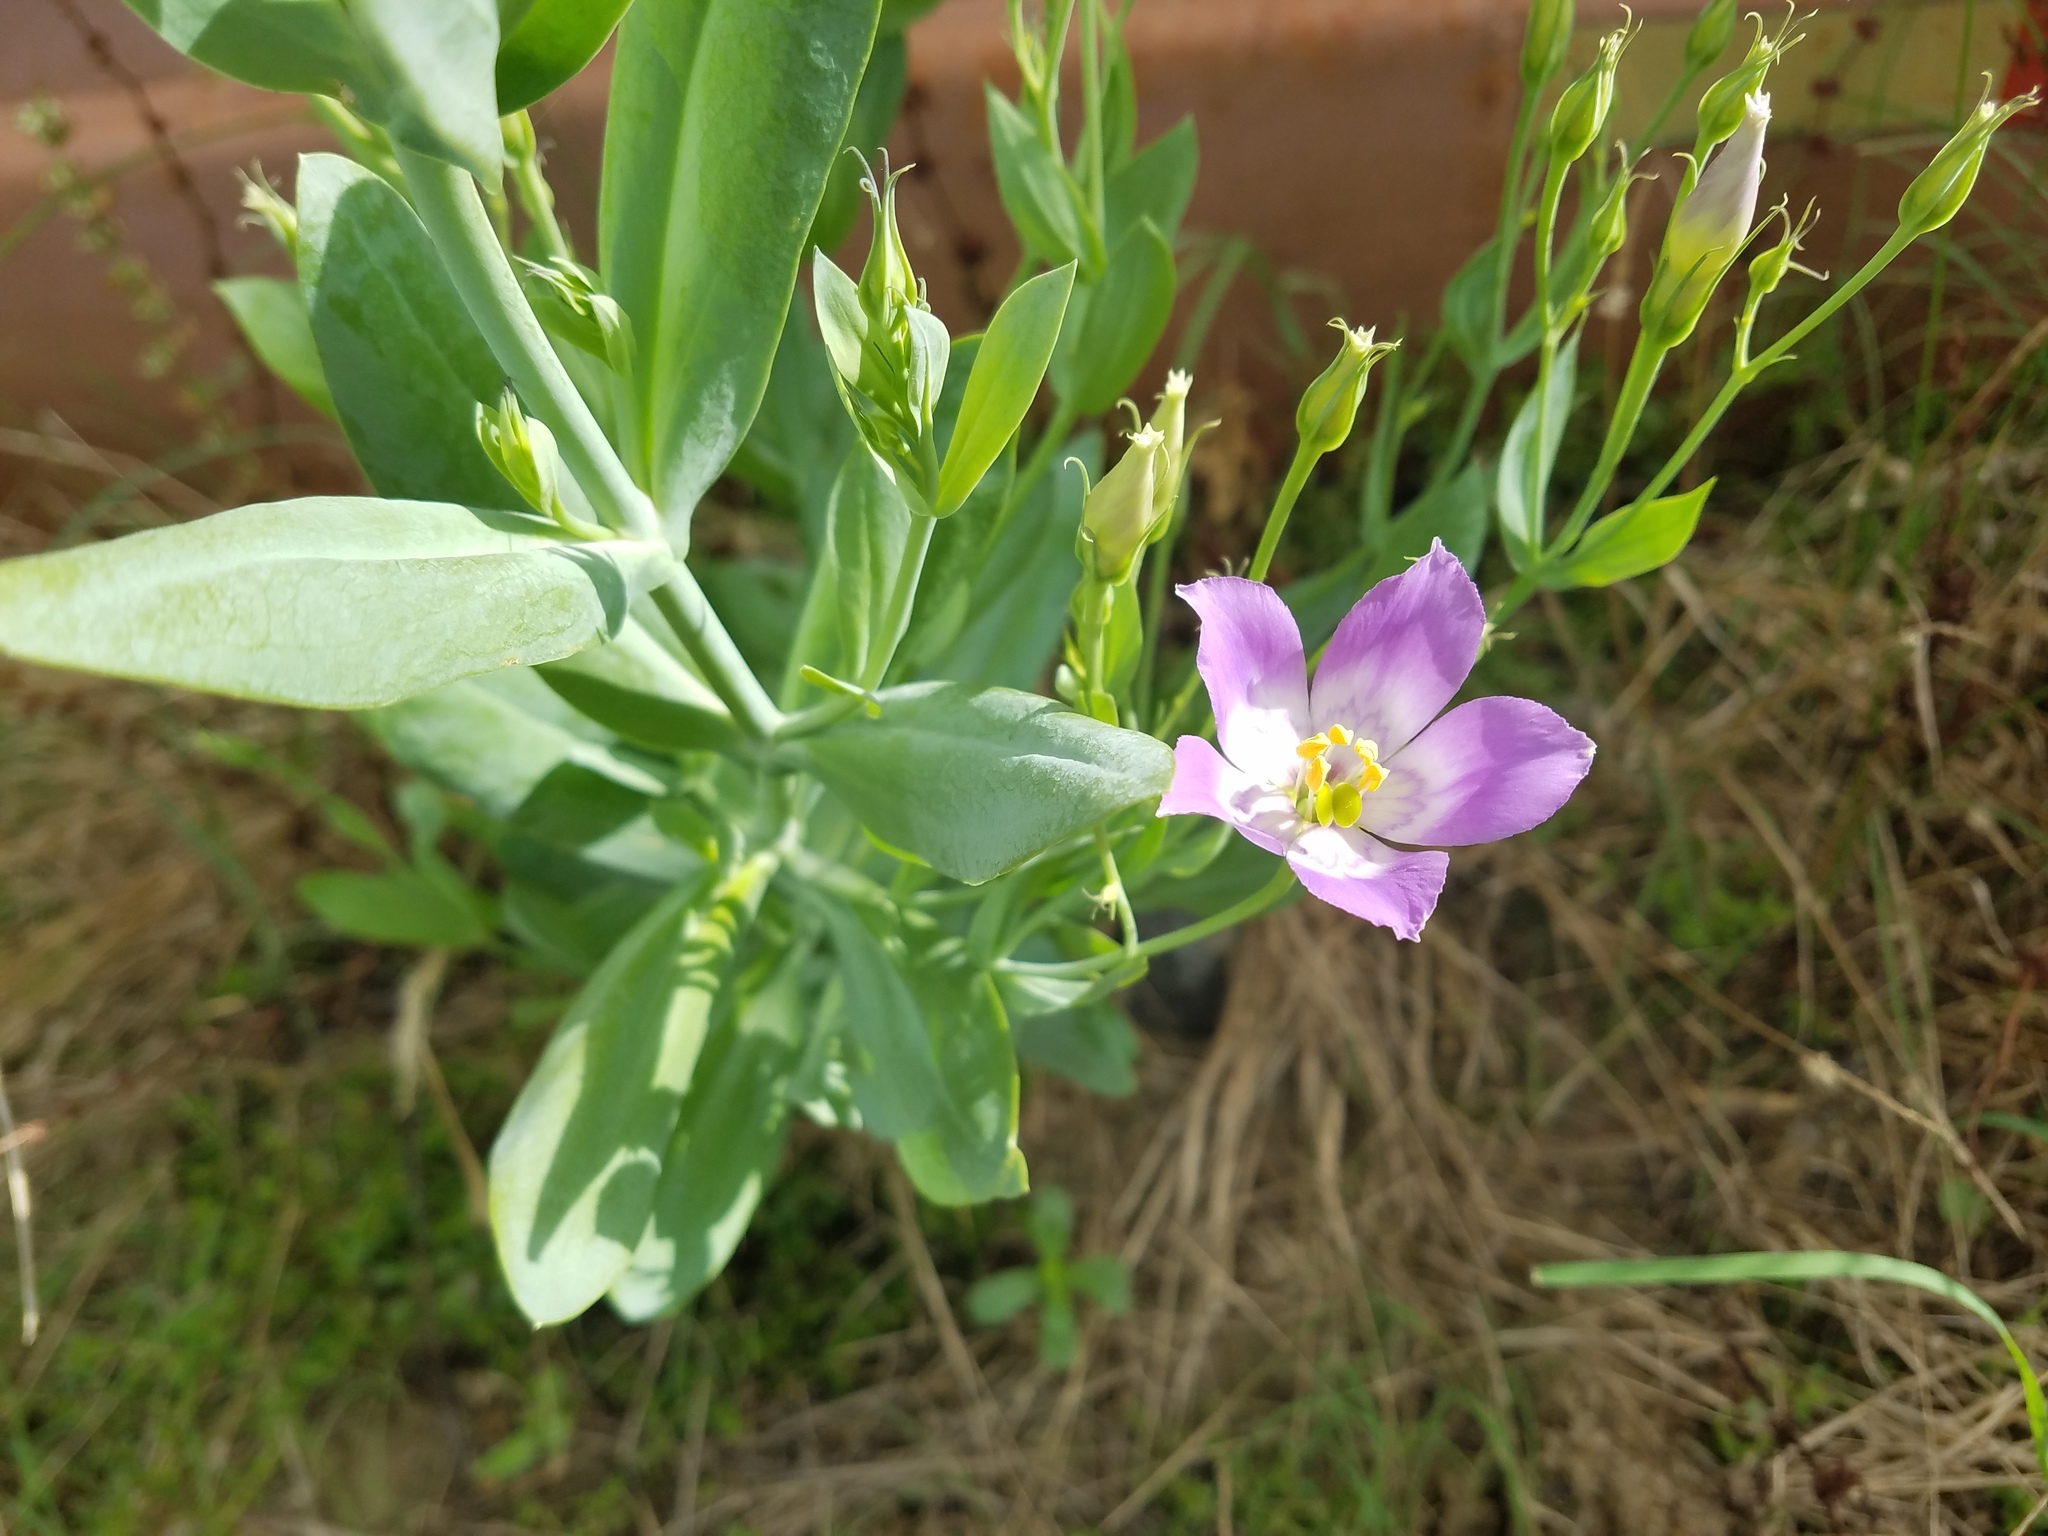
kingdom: Plantae
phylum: Tracheophyta
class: Magnoliopsida
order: Gentianales
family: Gentianaceae
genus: Eustoma
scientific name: Eustoma exaltatum
